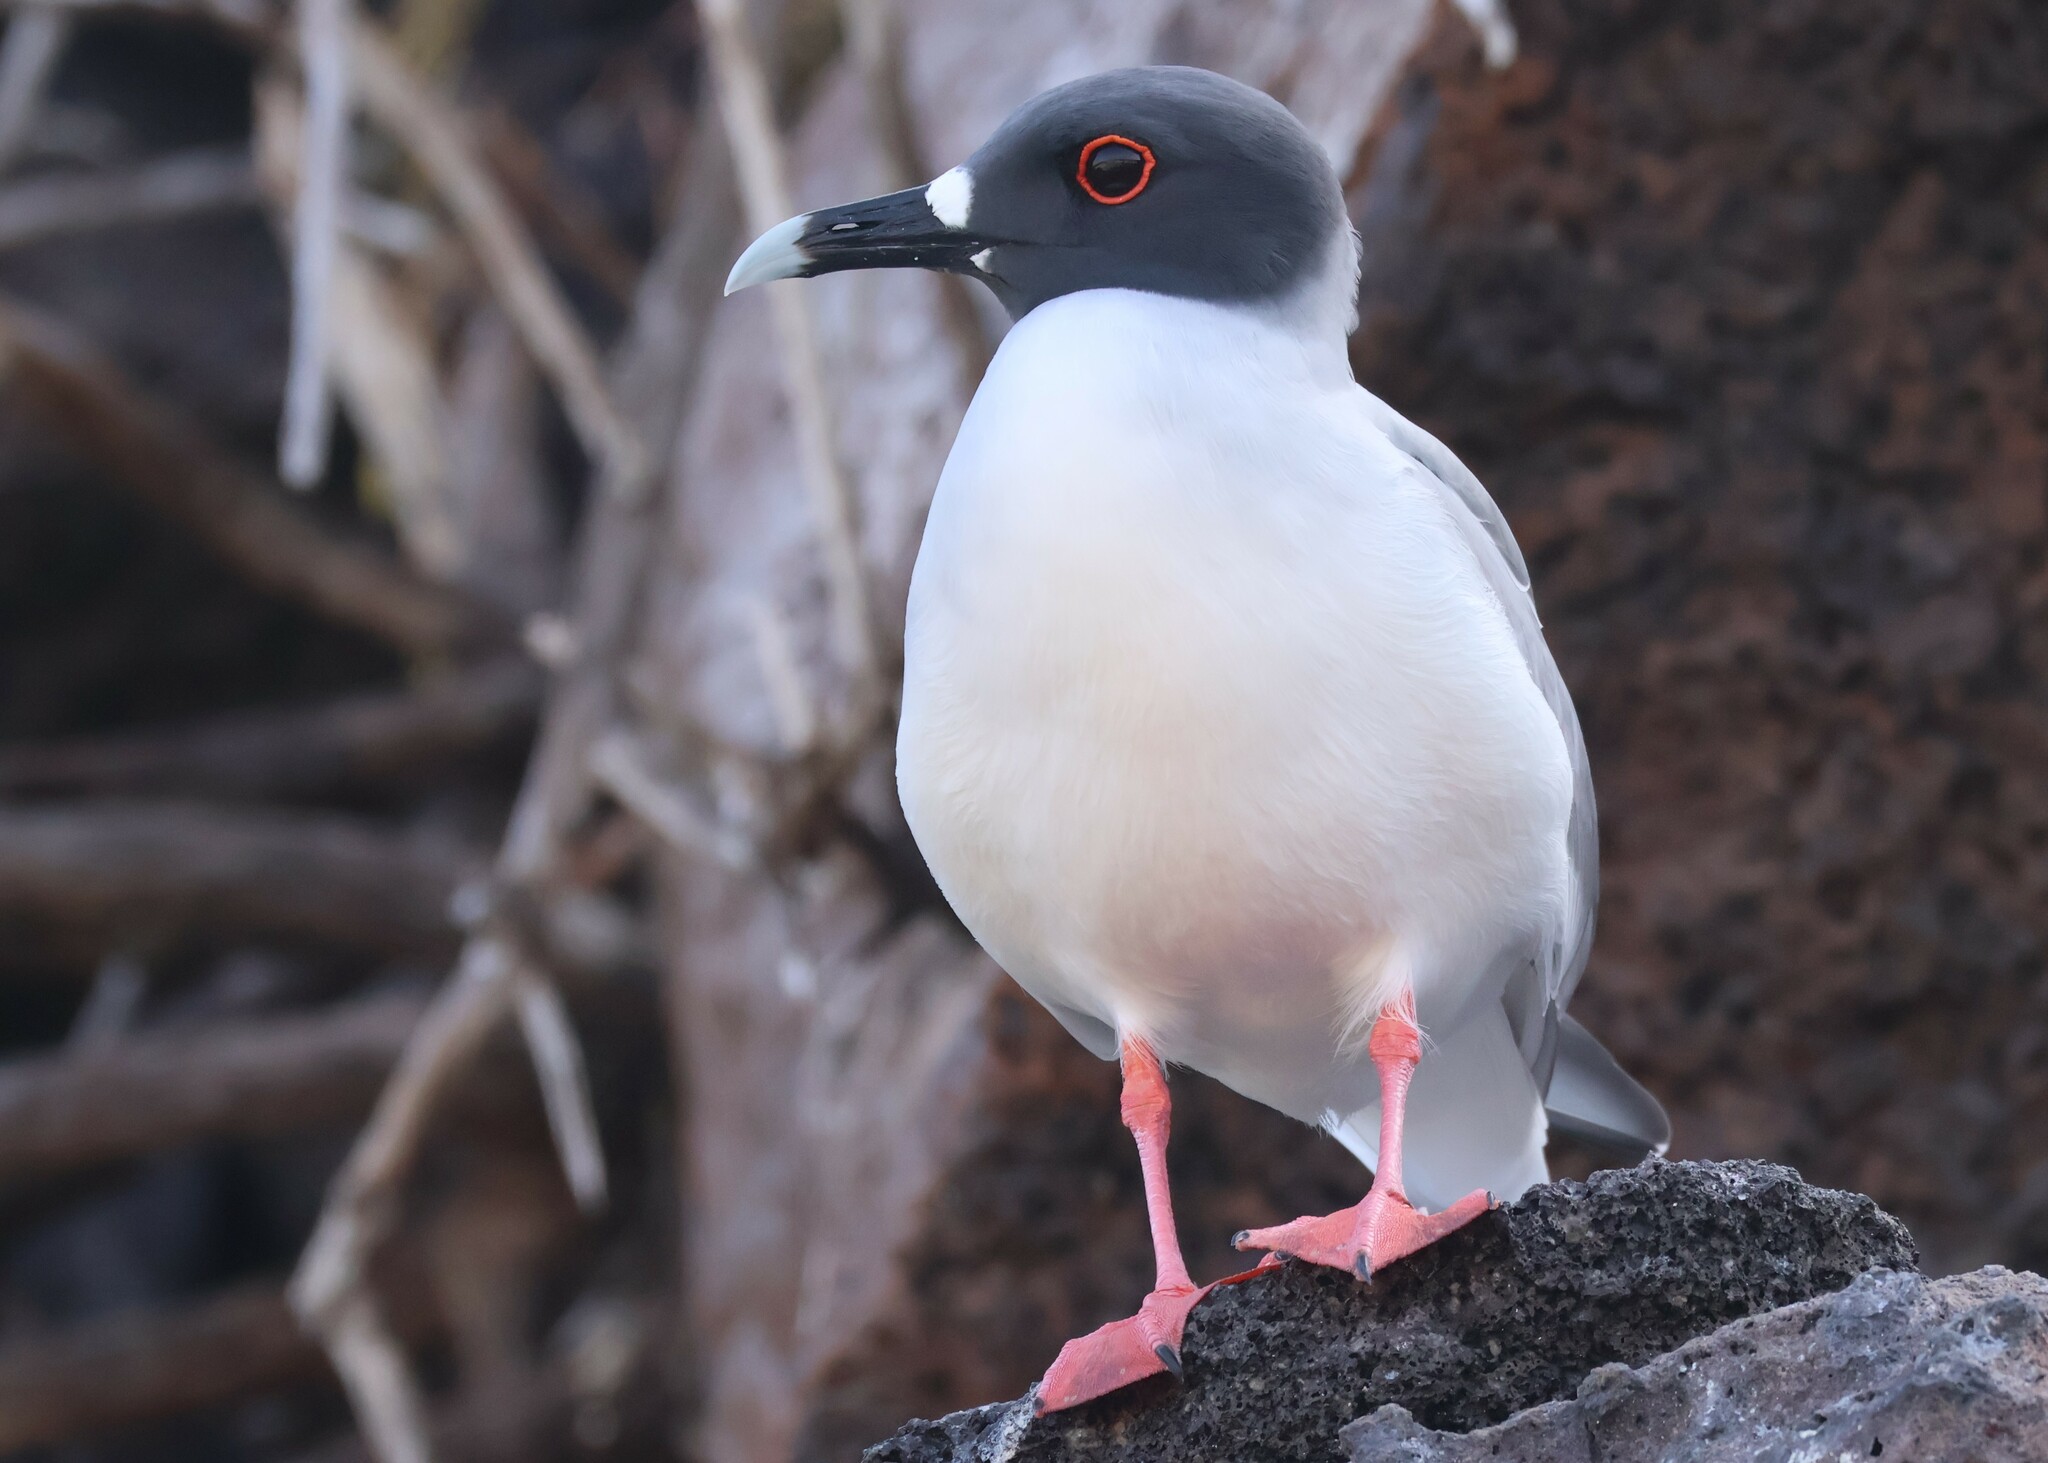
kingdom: Animalia
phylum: Chordata
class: Aves
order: Charadriiformes
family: Laridae
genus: Creagrus
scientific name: Creagrus furcatus
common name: Swallow-tailed gull
